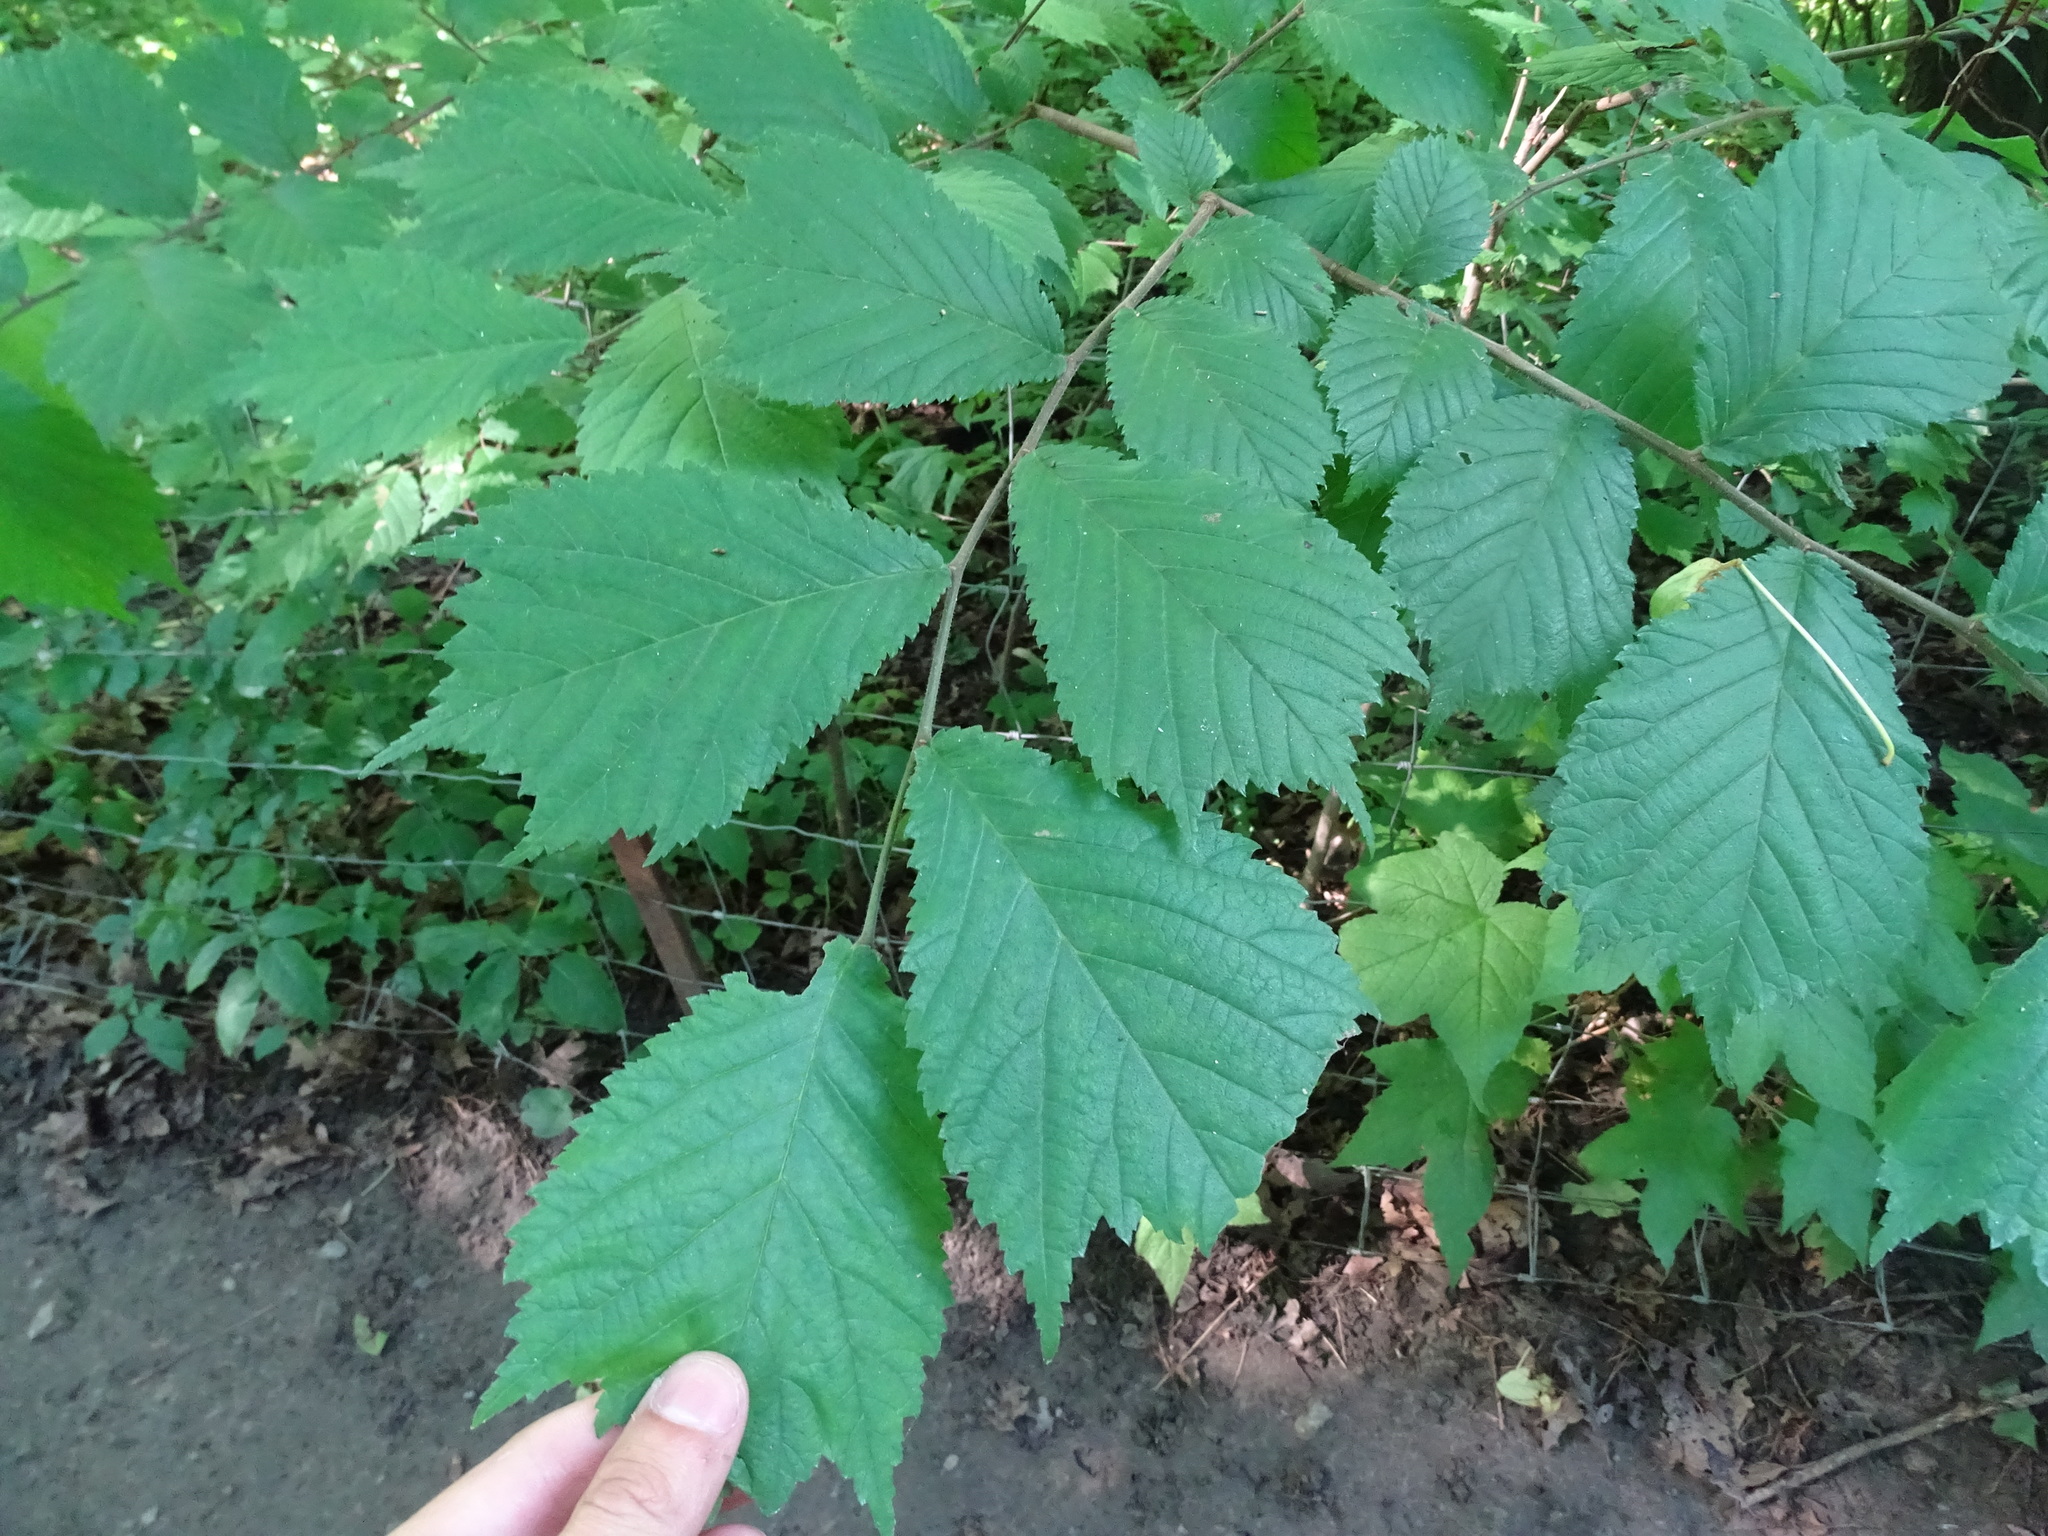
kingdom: Plantae
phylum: Tracheophyta
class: Magnoliopsida
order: Rosales
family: Ulmaceae
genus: Ulmus
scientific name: Ulmus glabra
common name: Wych elm
